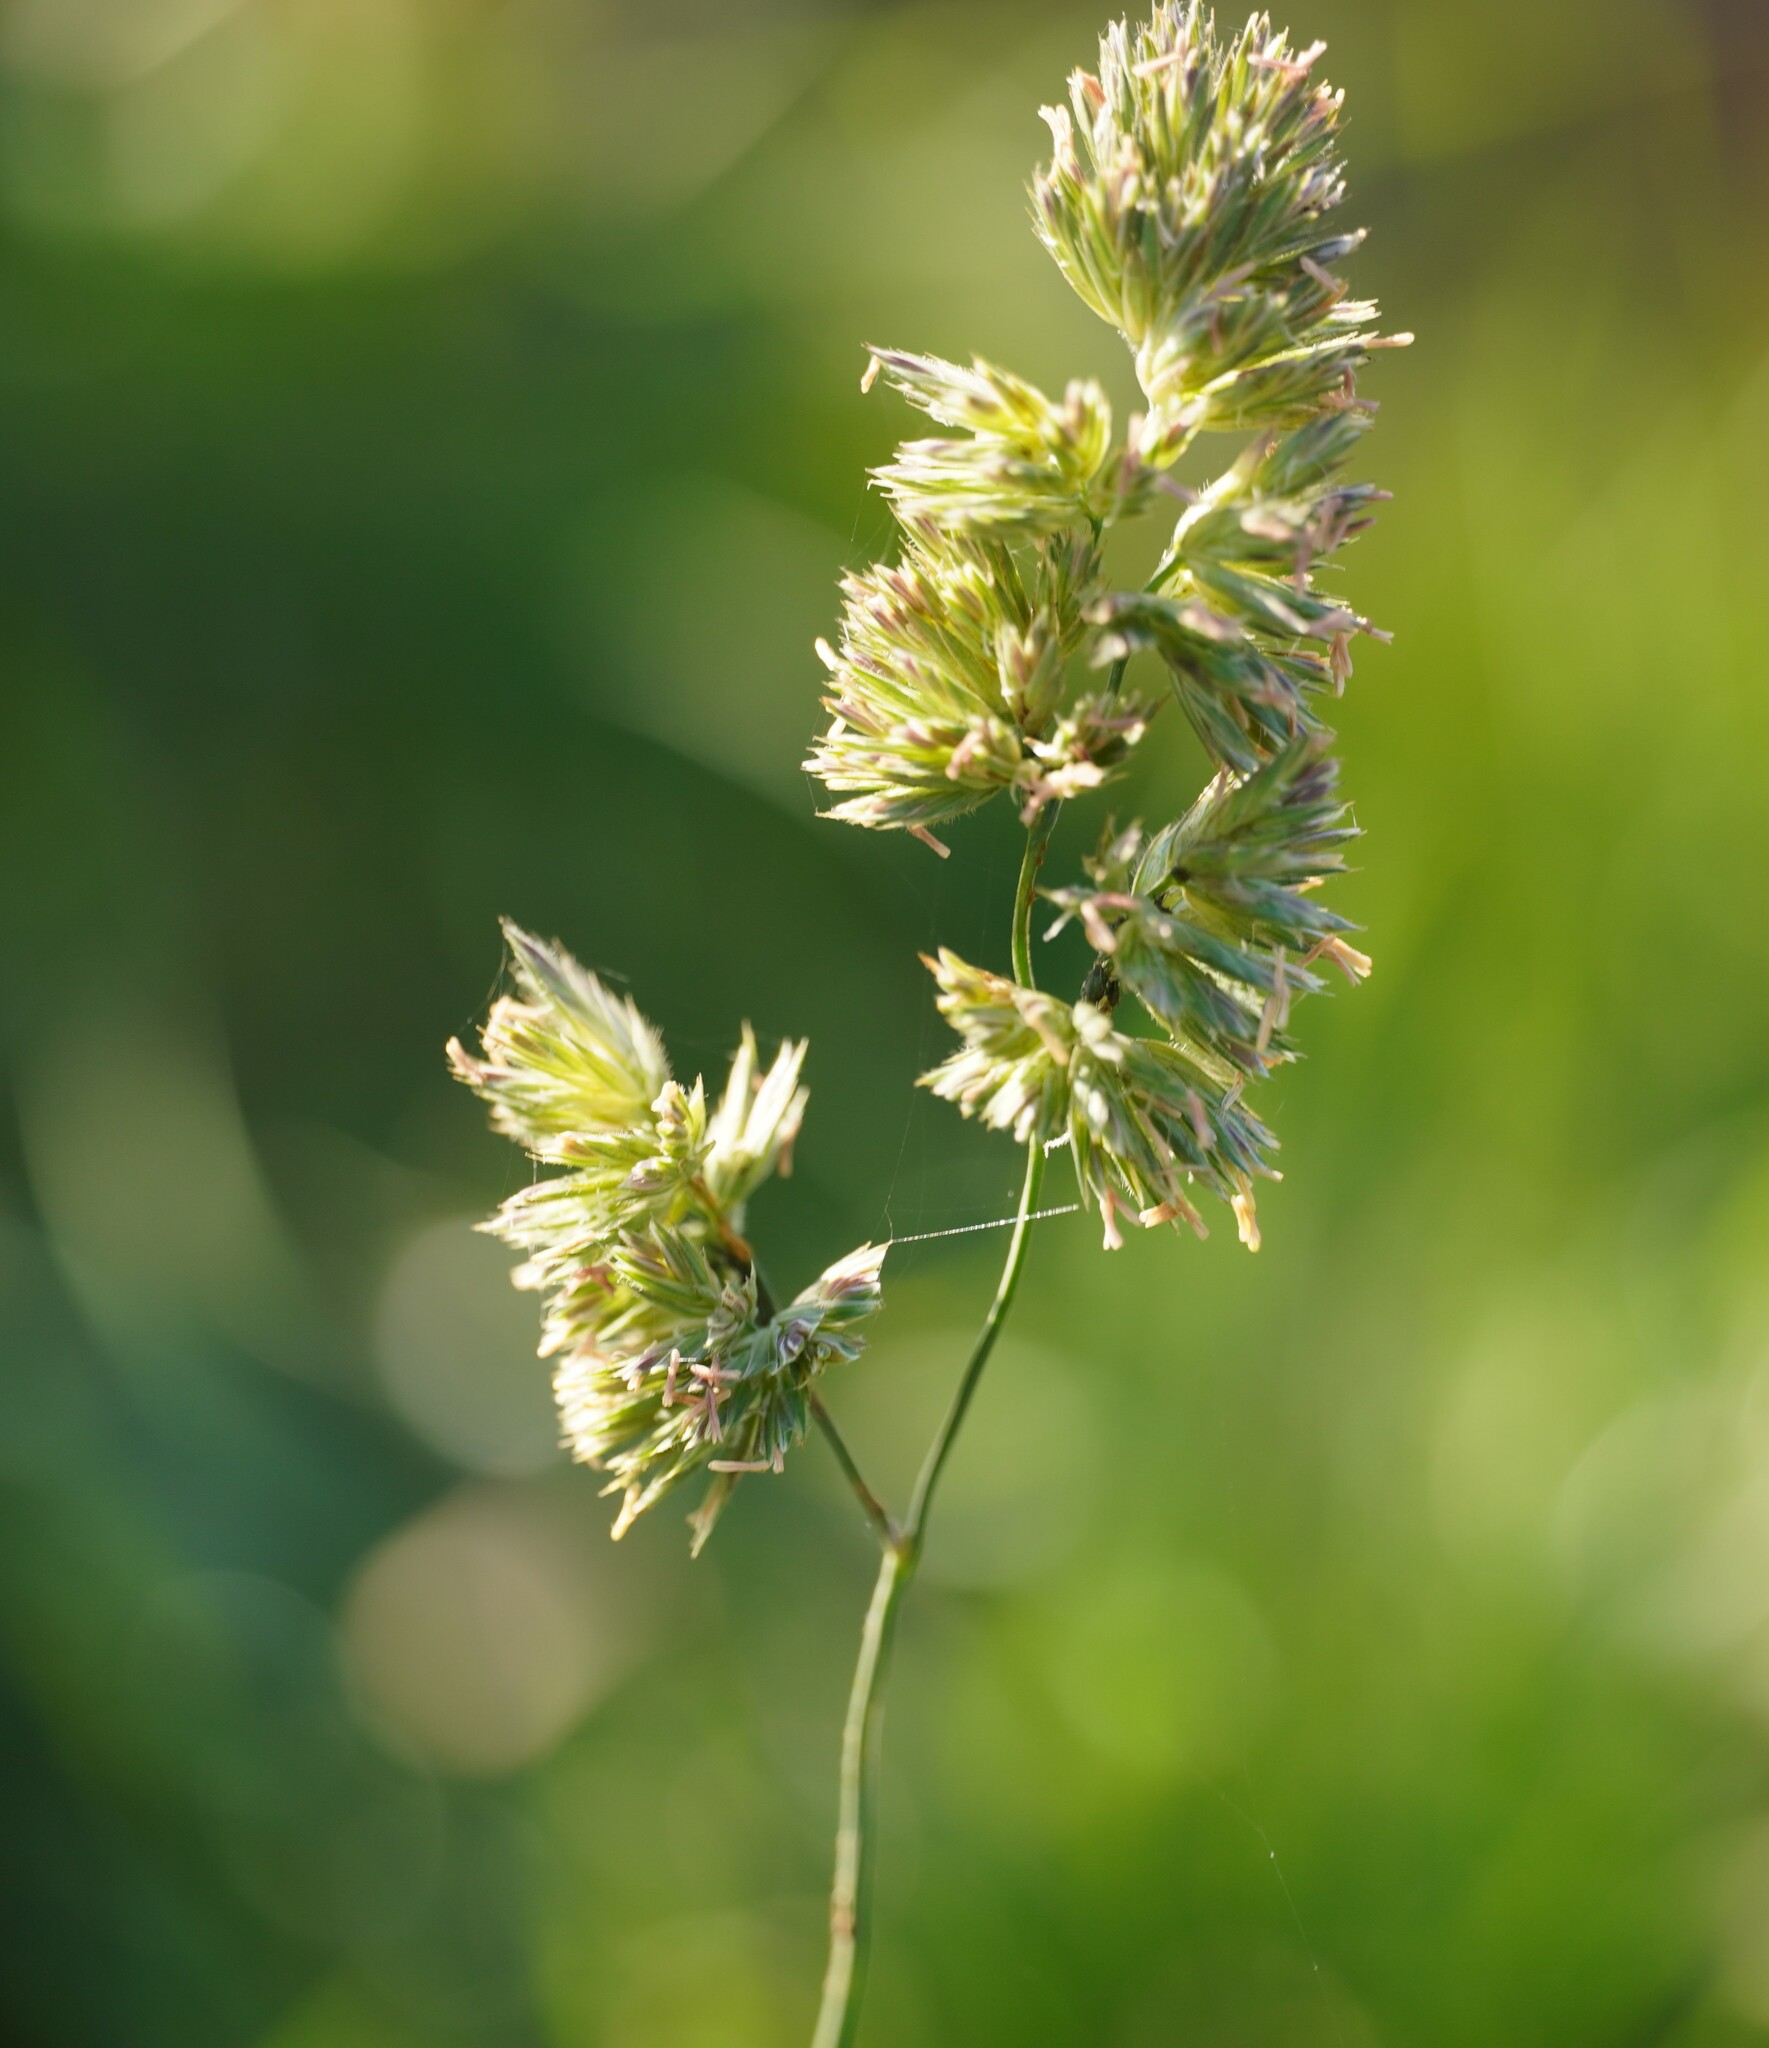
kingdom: Plantae
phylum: Tracheophyta
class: Liliopsida
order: Poales
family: Poaceae
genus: Dactylis
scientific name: Dactylis glomerata
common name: Orchardgrass
